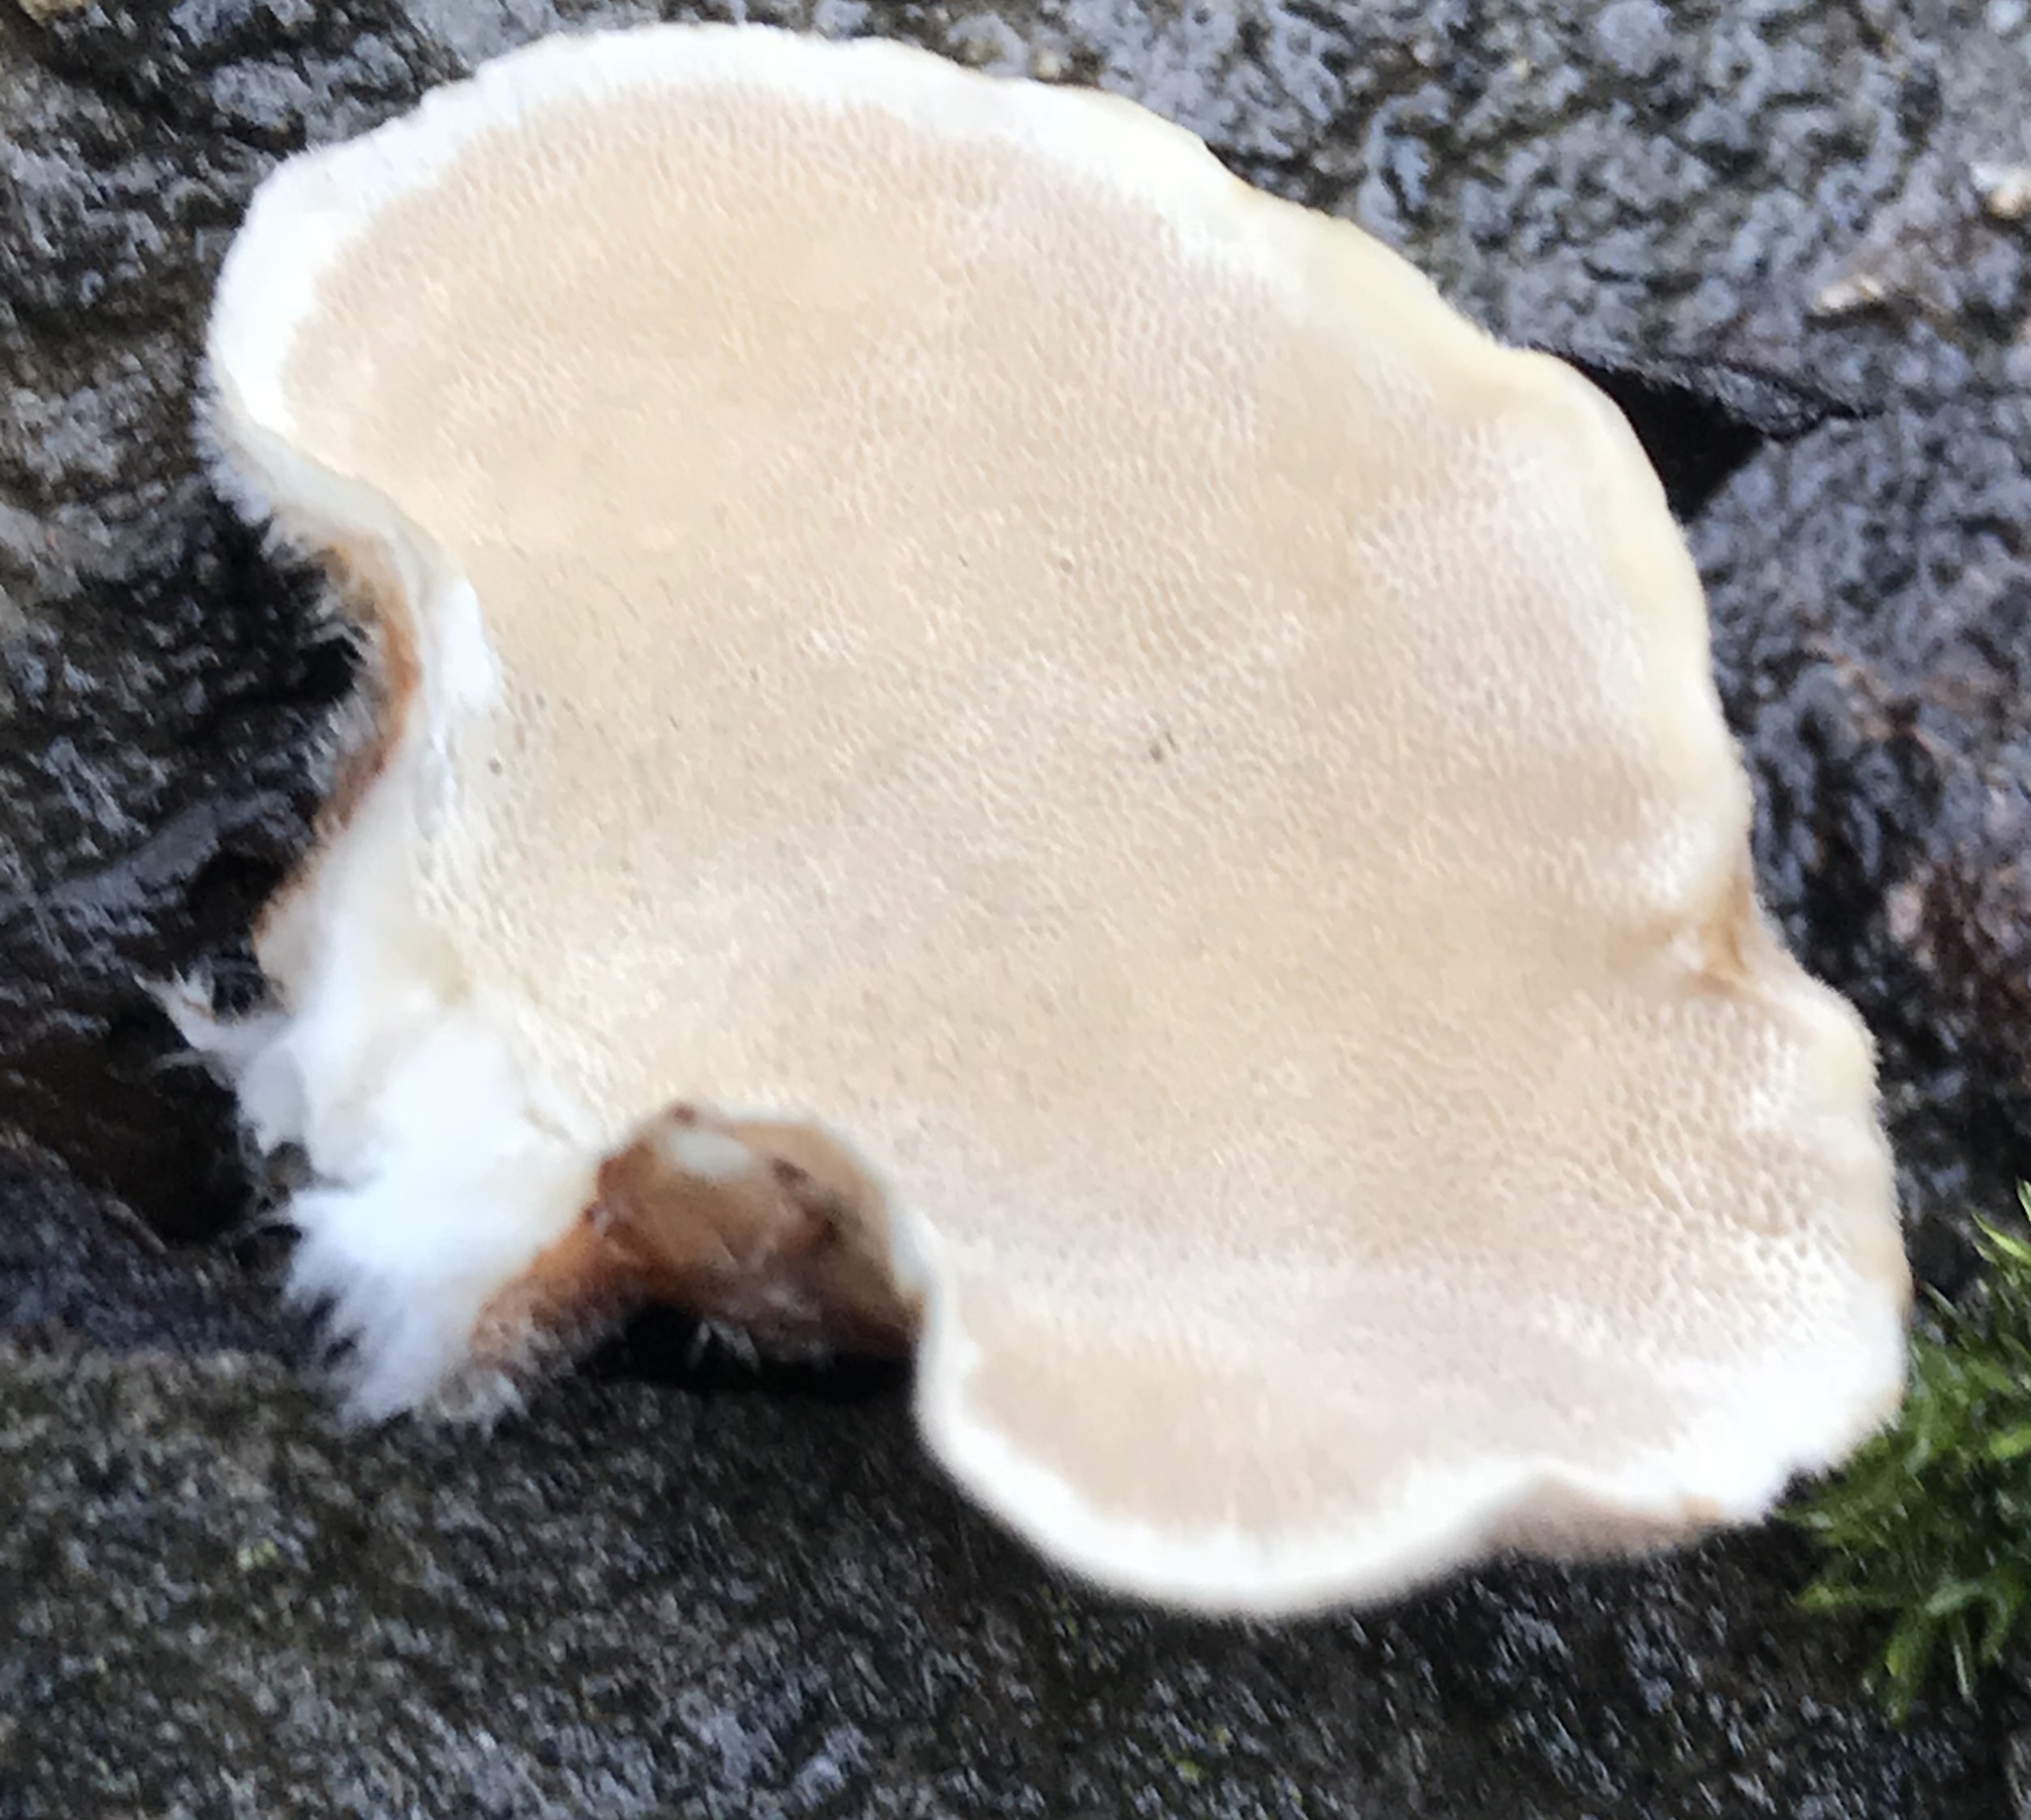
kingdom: Fungi
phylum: Basidiomycota
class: Agaricomycetes
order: Polyporales
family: Polyporaceae
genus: Trametes
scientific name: Trametes versicolor
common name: Turkeytail
